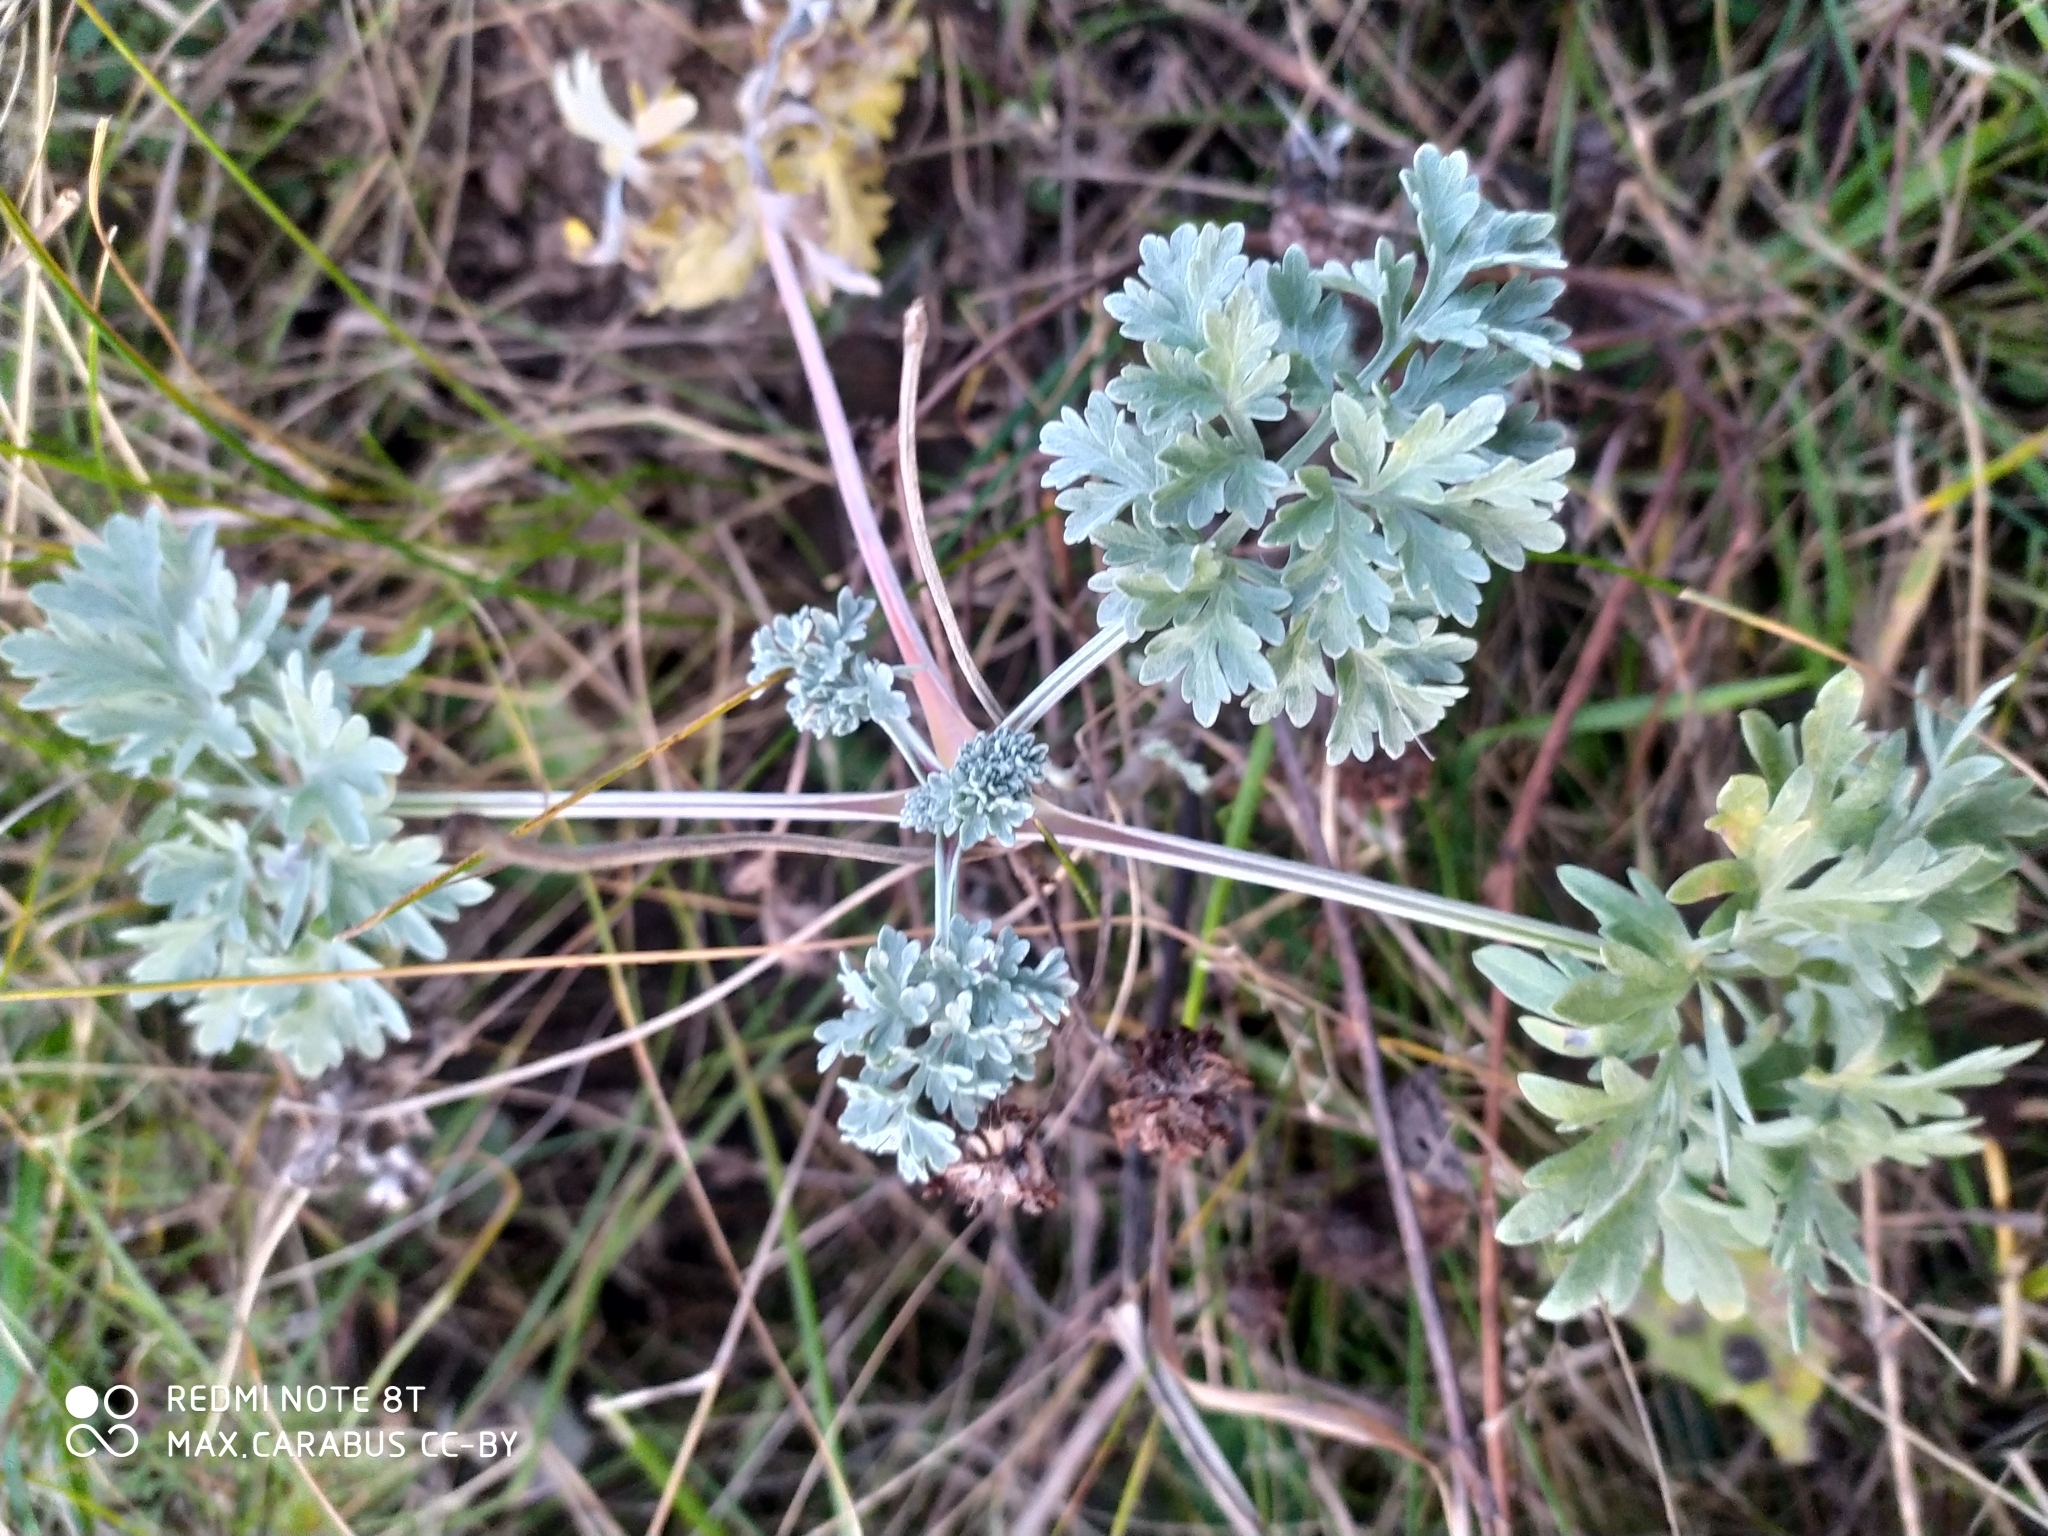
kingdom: Plantae
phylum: Tracheophyta
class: Magnoliopsida
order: Asterales
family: Asteraceae
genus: Artemisia
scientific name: Artemisia absinthium
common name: Wormwood
